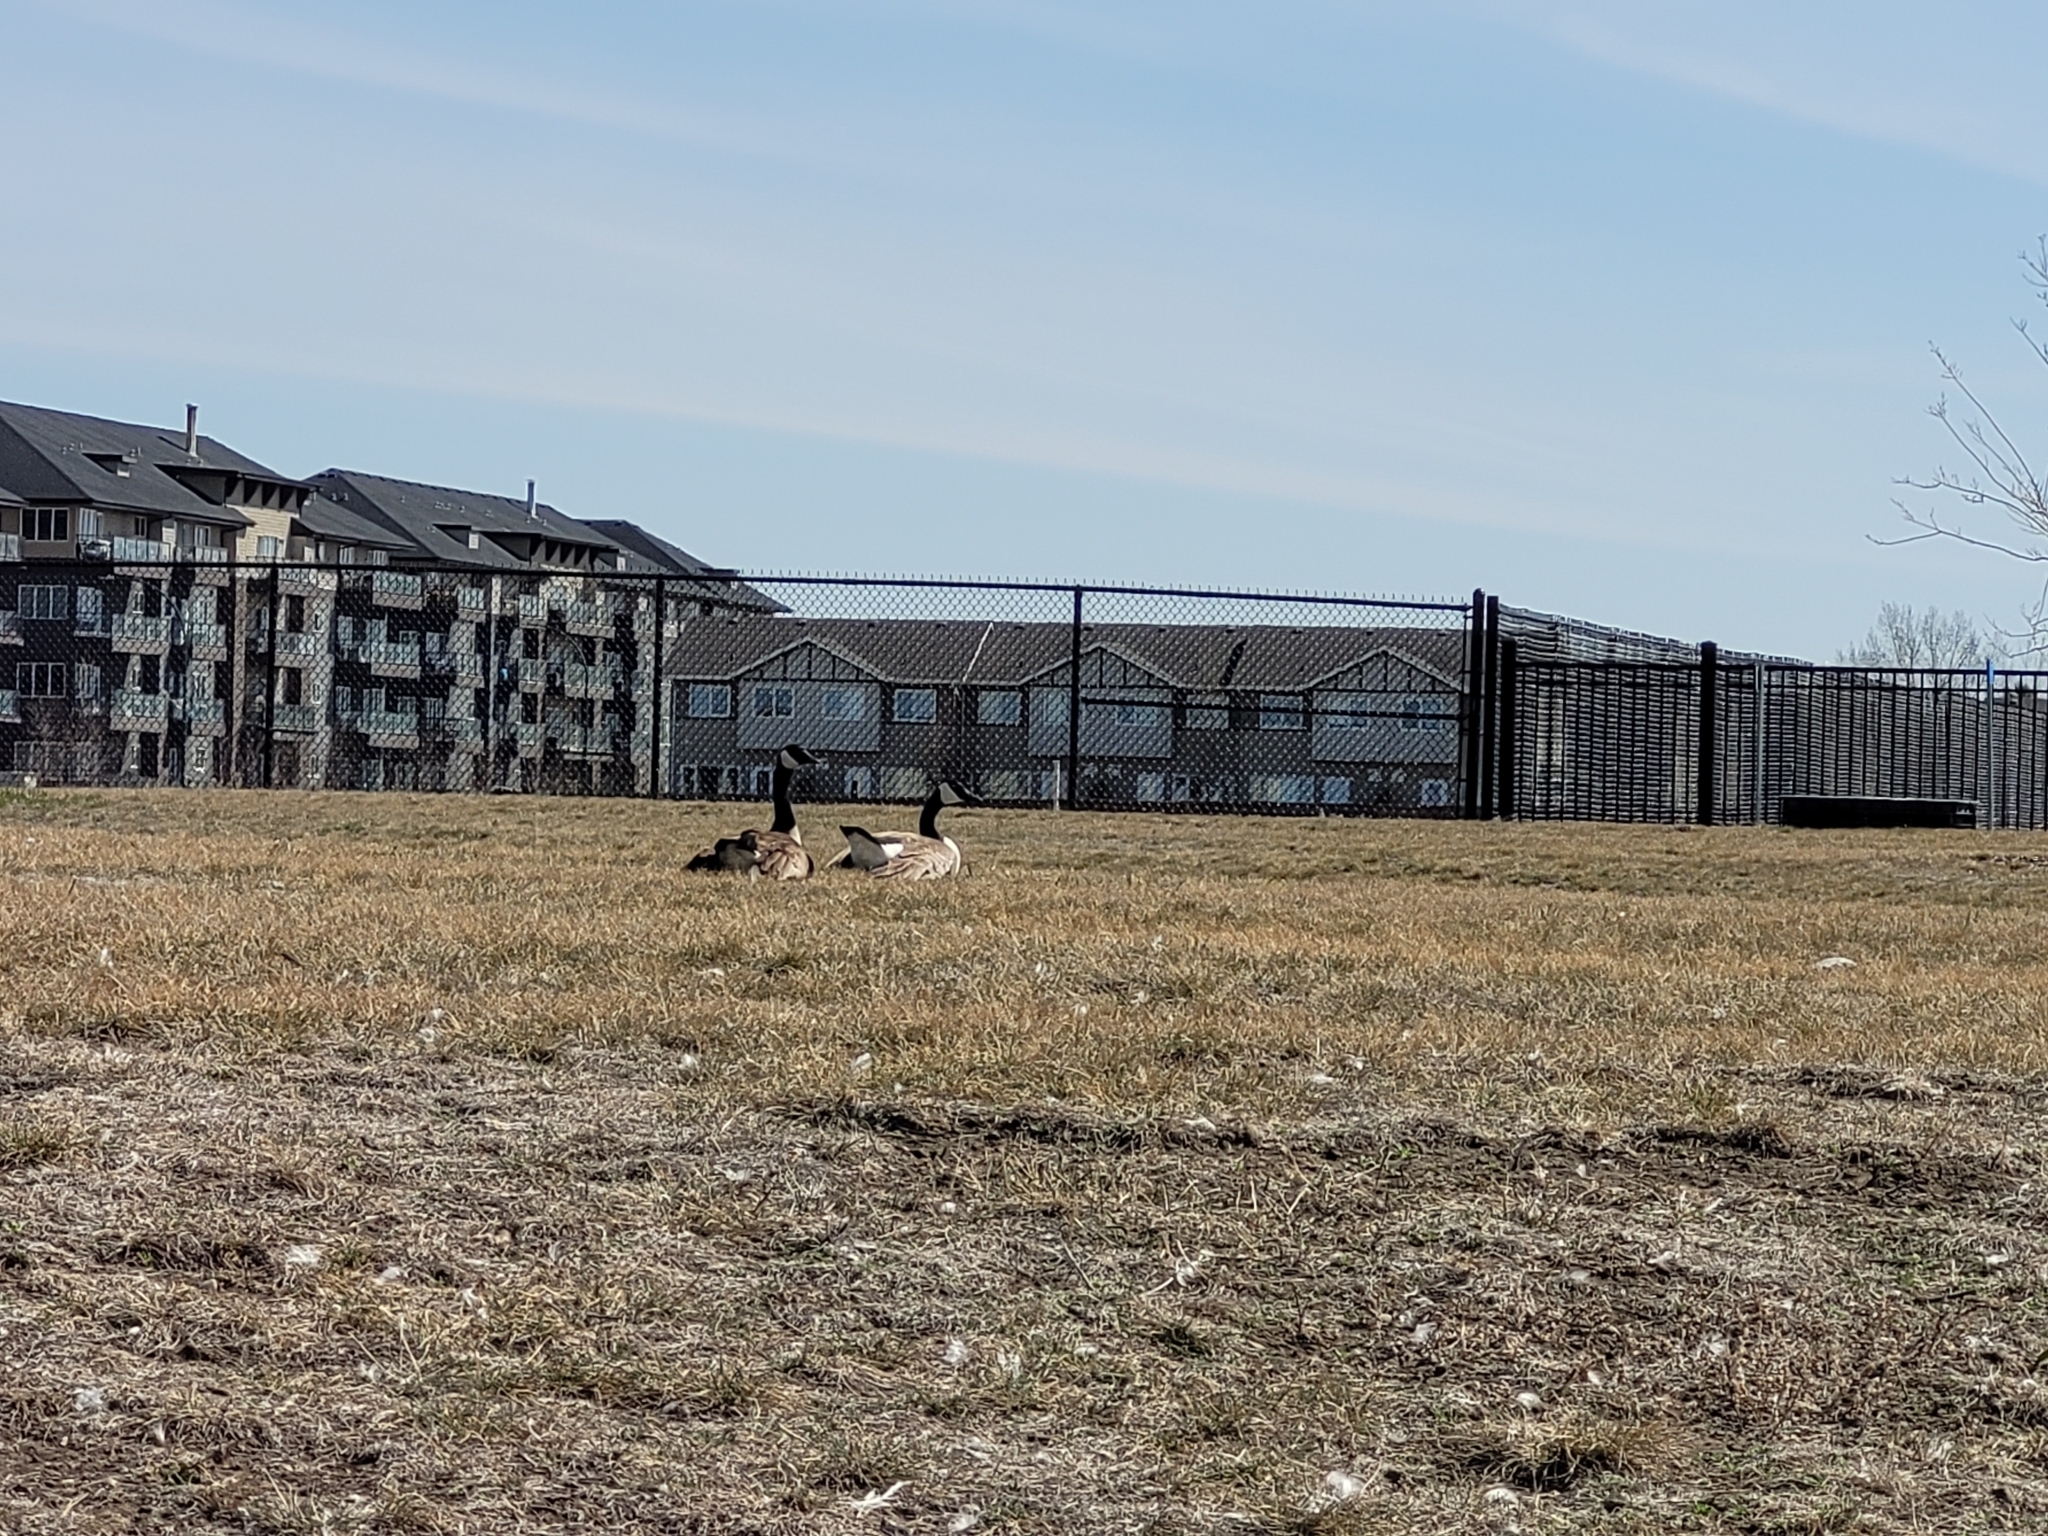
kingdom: Animalia
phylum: Chordata
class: Aves
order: Anseriformes
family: Anatidae
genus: Branta
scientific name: Branta canadensis
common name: Canada goose
